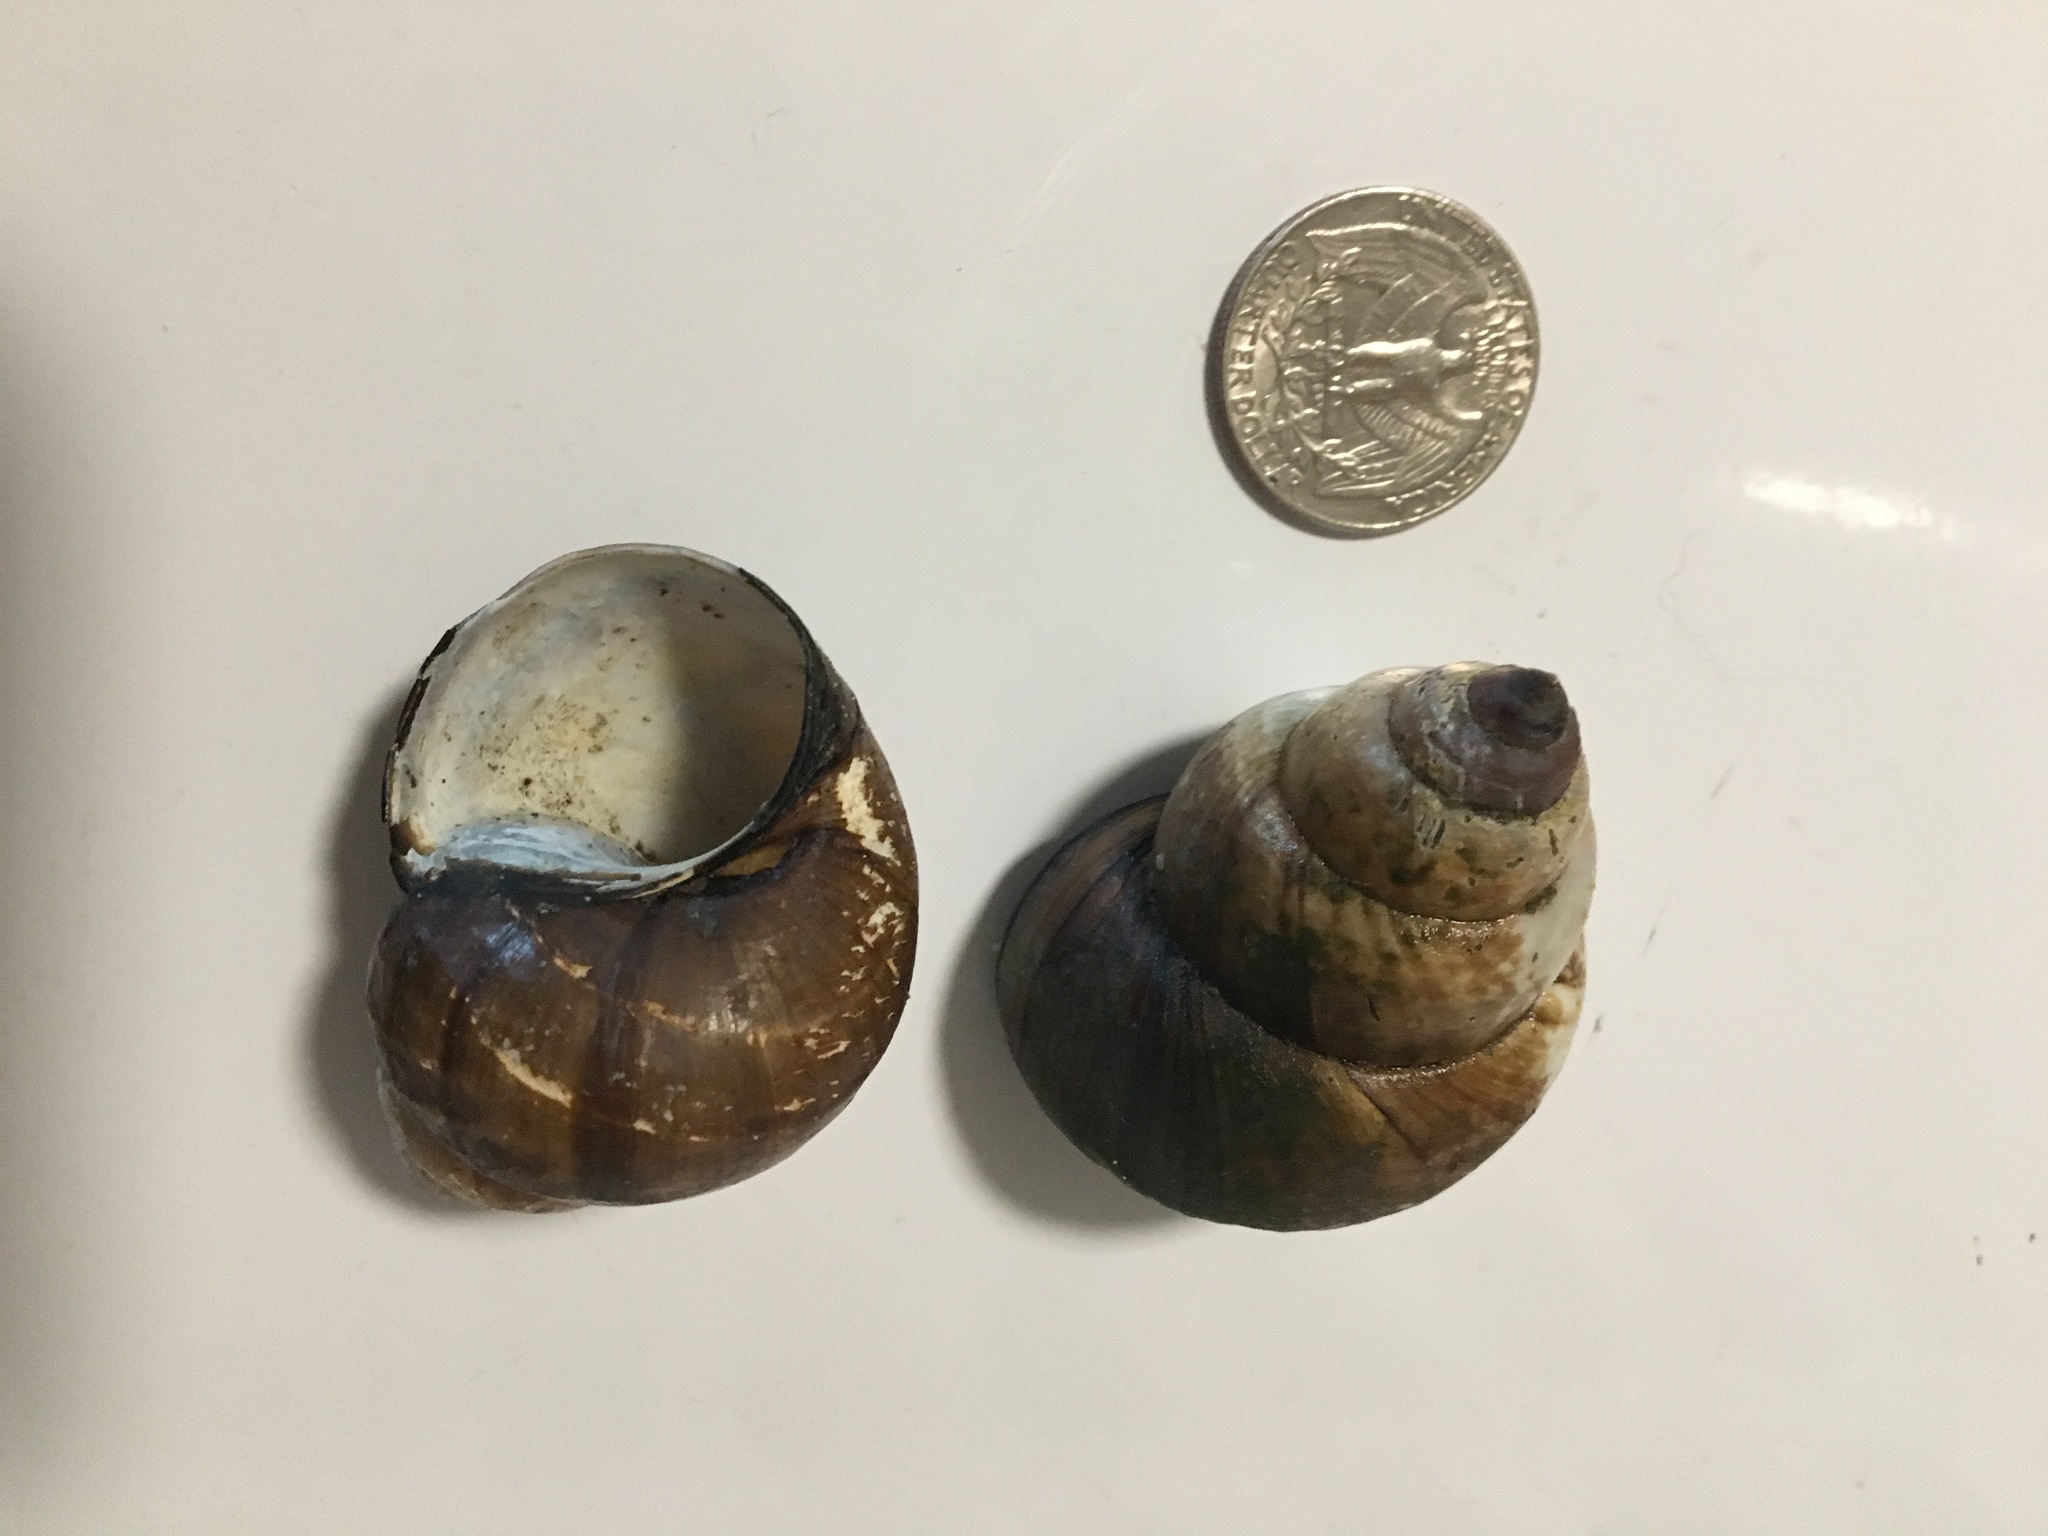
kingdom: Animalia
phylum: Mollusca
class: Gastropoda
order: Architaenioglossa
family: Viviparidae
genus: Cipangopaludina
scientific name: Cipangopaludina chinensis
